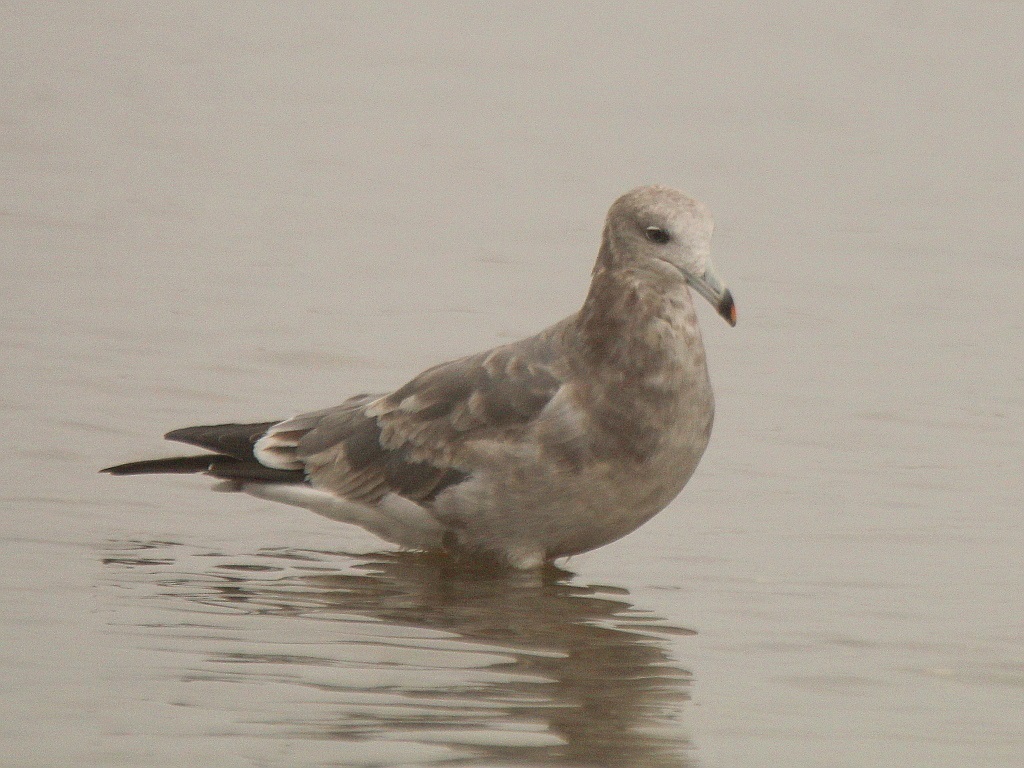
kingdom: Animalia
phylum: Chordata
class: Aves
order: Charadriiformes
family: Laridae
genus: Larus
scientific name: Larus crassirostris
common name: Black-tailed gull
